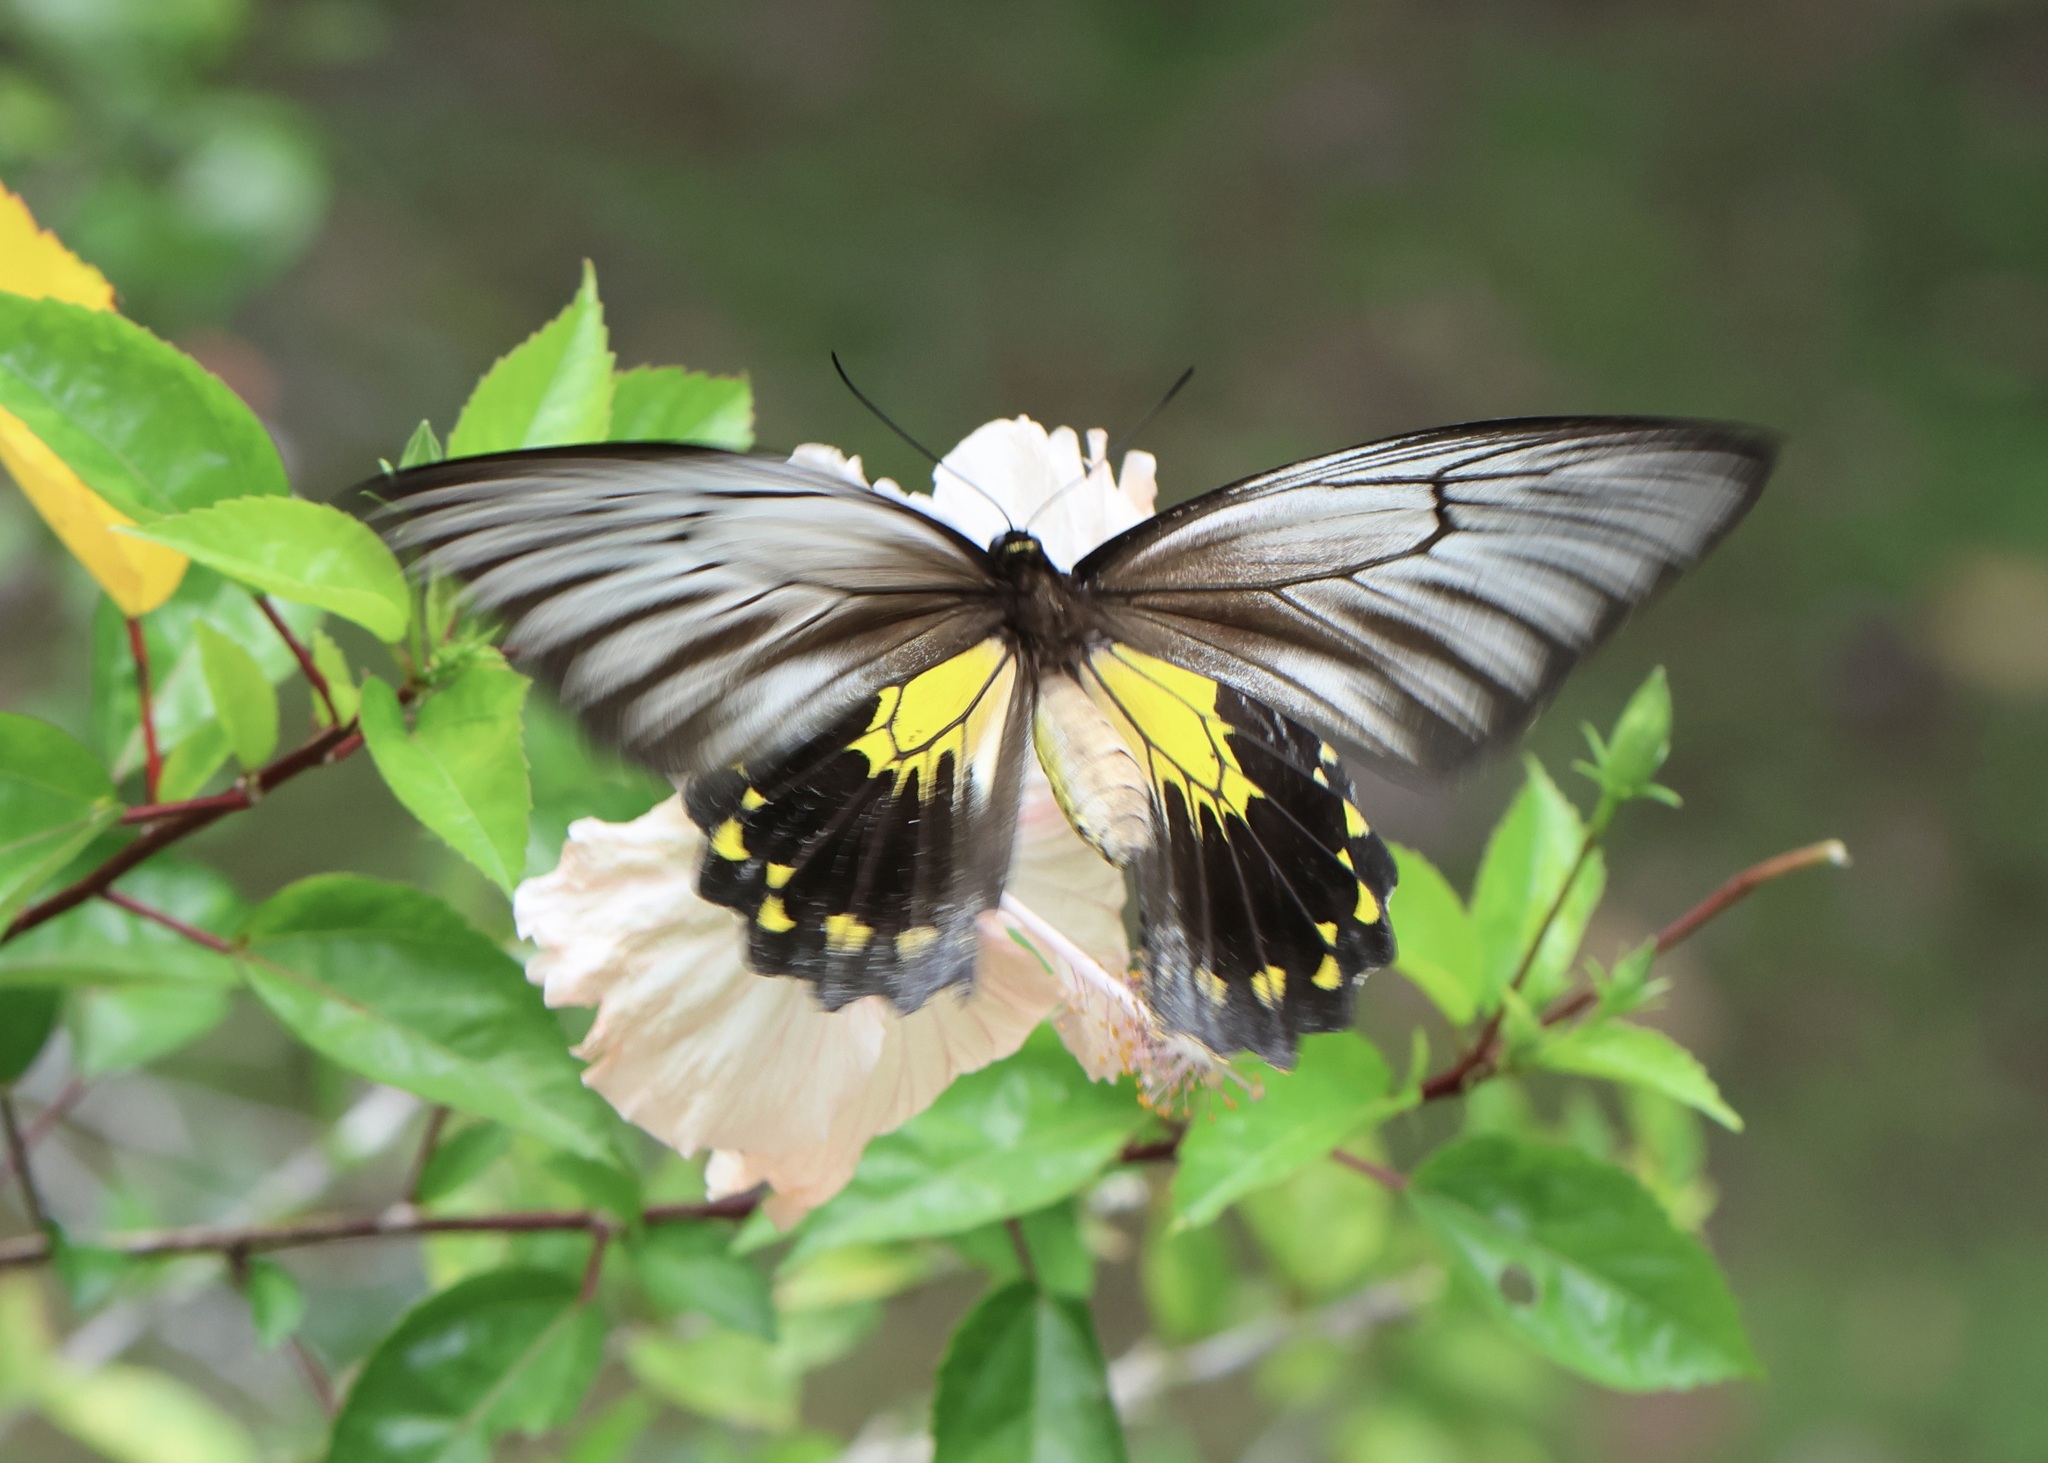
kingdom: Animalia
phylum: Arthropoda
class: Insecta
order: Lepidoptera
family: Papilionidae
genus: Troides
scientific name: Troides amphrysus
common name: Malay birdwing
